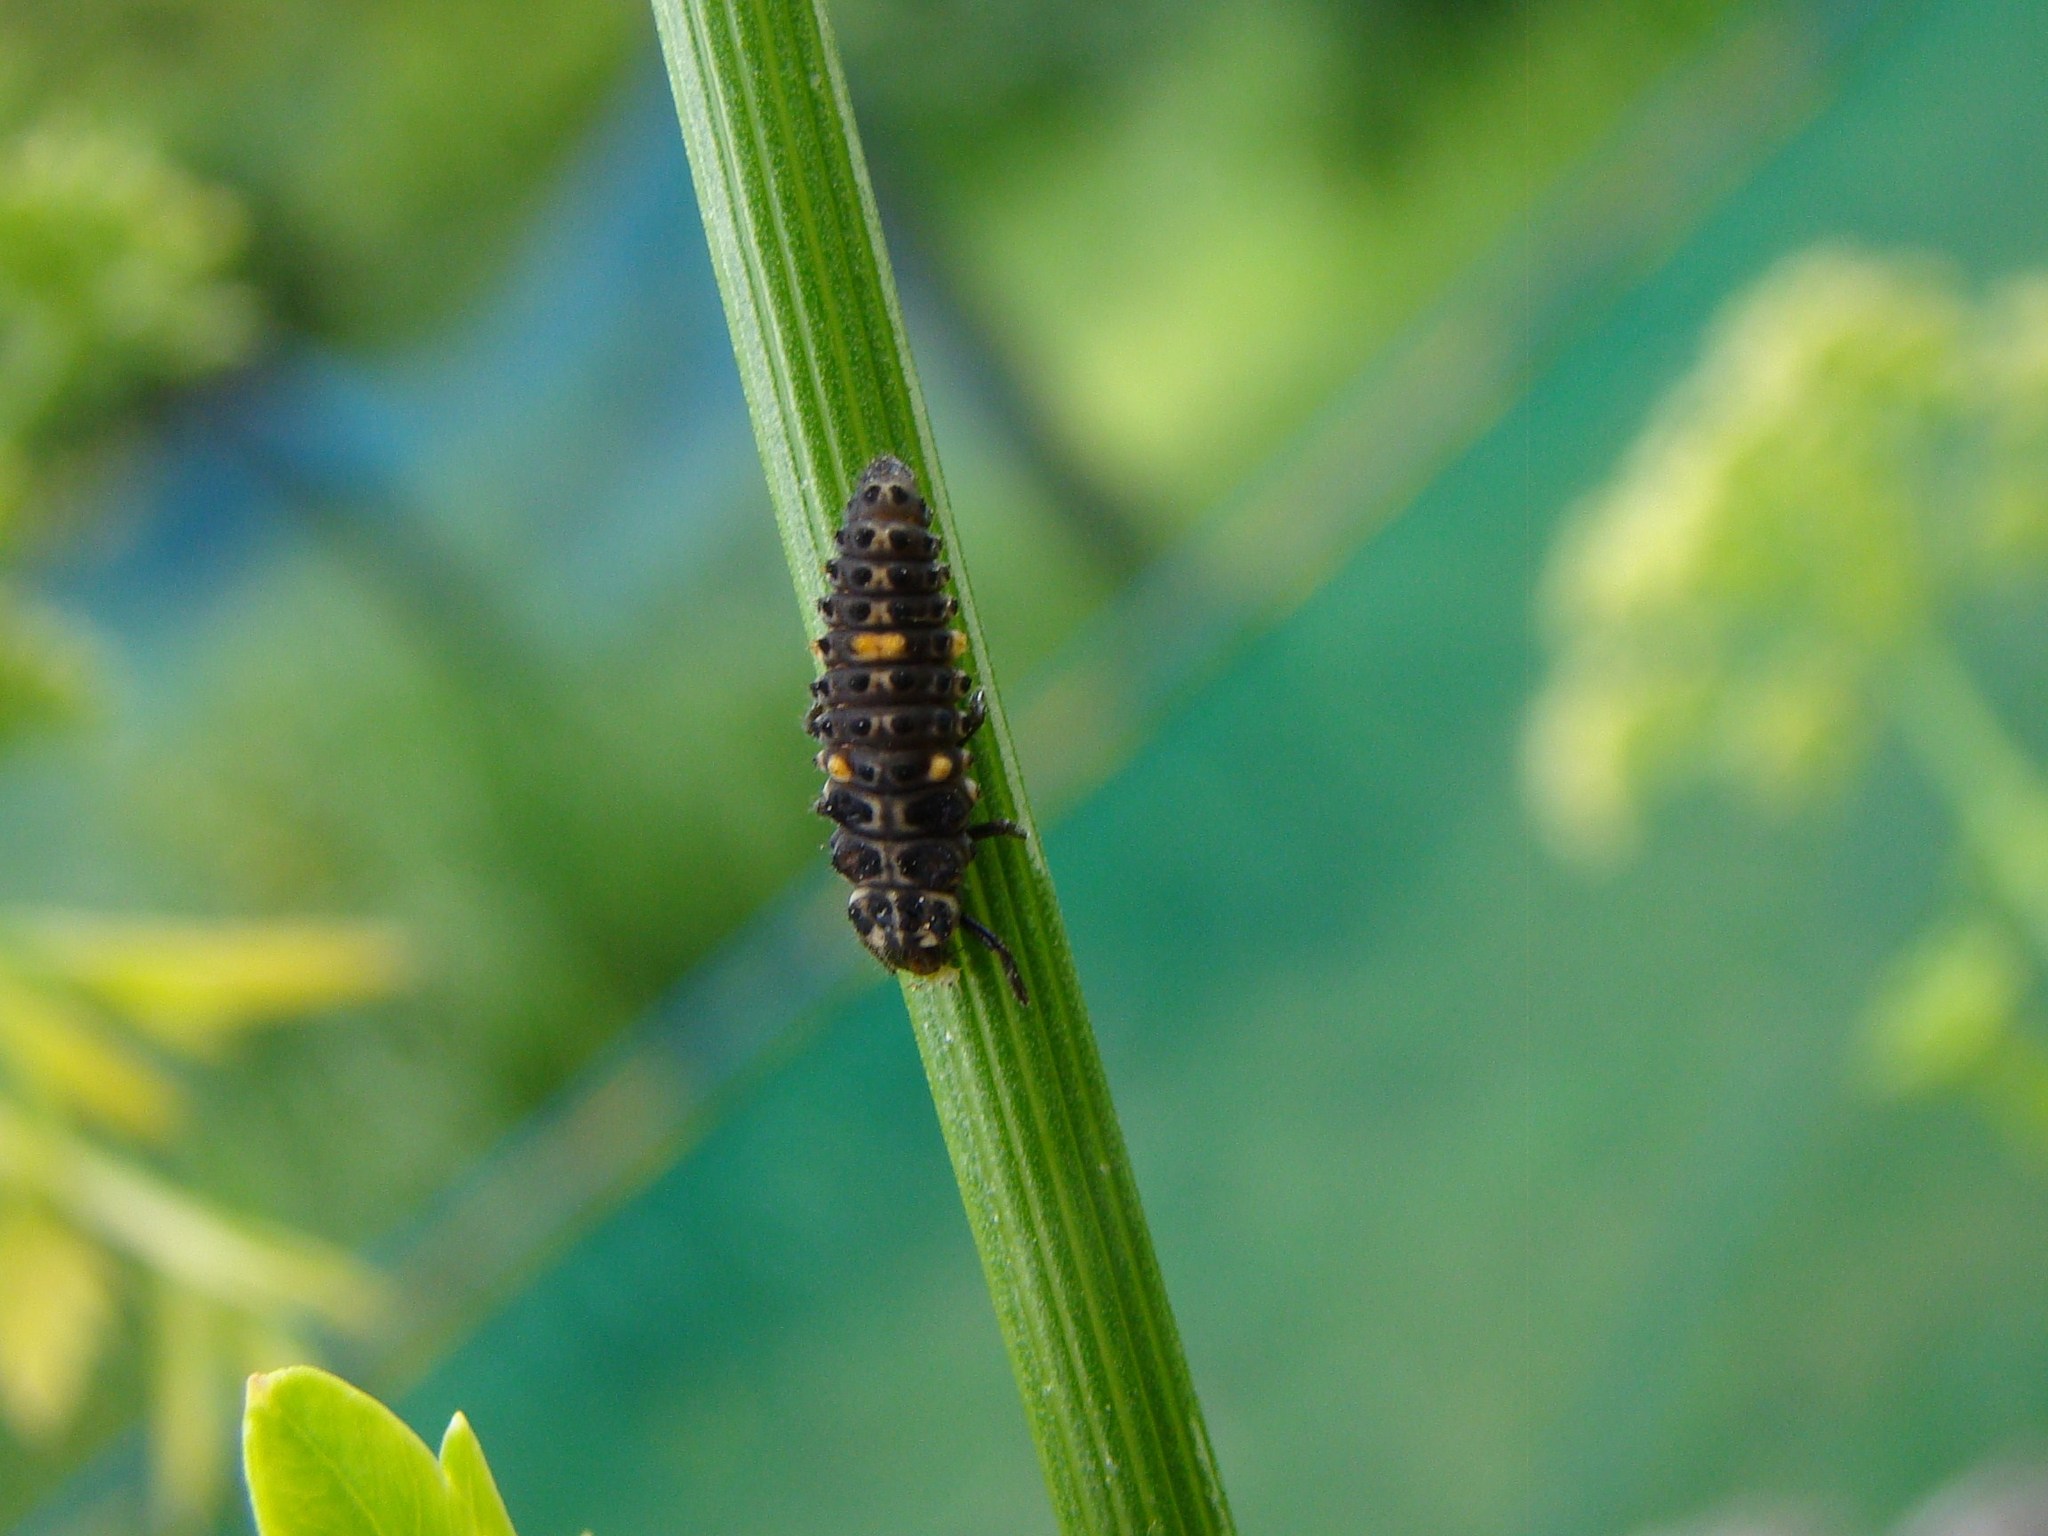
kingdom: Animalia
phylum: Arthropoda
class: Insecta
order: Coleoptera
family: Coccinellidae
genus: Adalia
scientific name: Adalia bipunctata
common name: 2-spot ladybird
